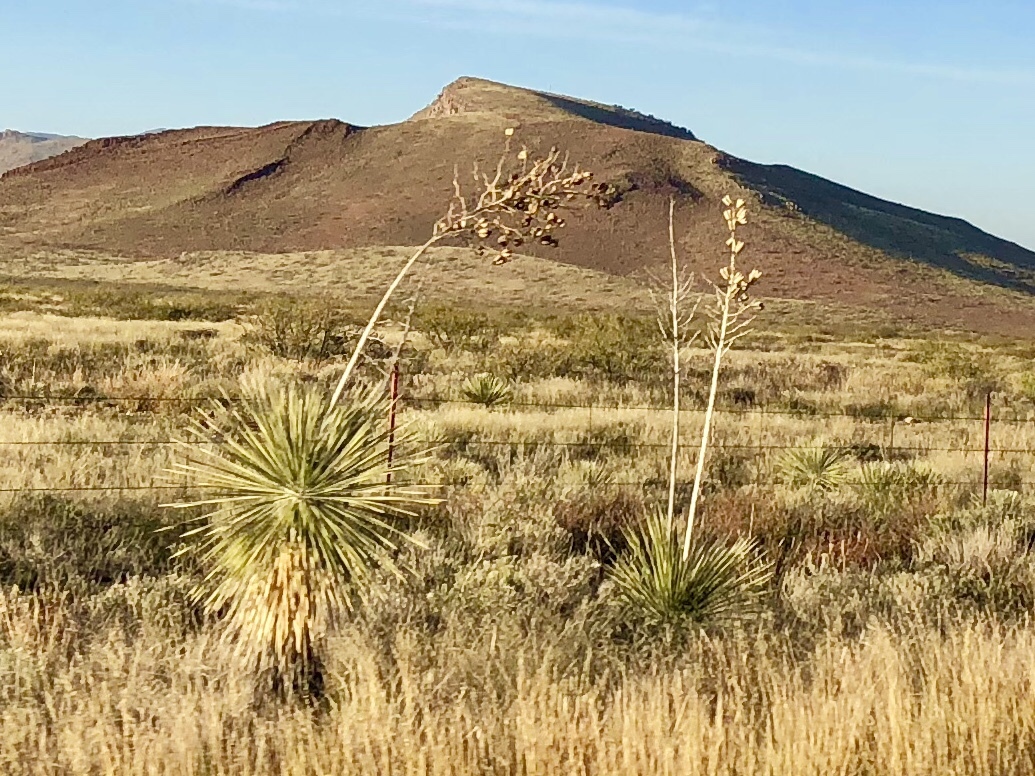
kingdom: Plantae
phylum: Tracheophyta
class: Liliopsida
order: Asparagales
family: Asparagaceae
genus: Yucca
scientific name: Yucca elata
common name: Palmella
